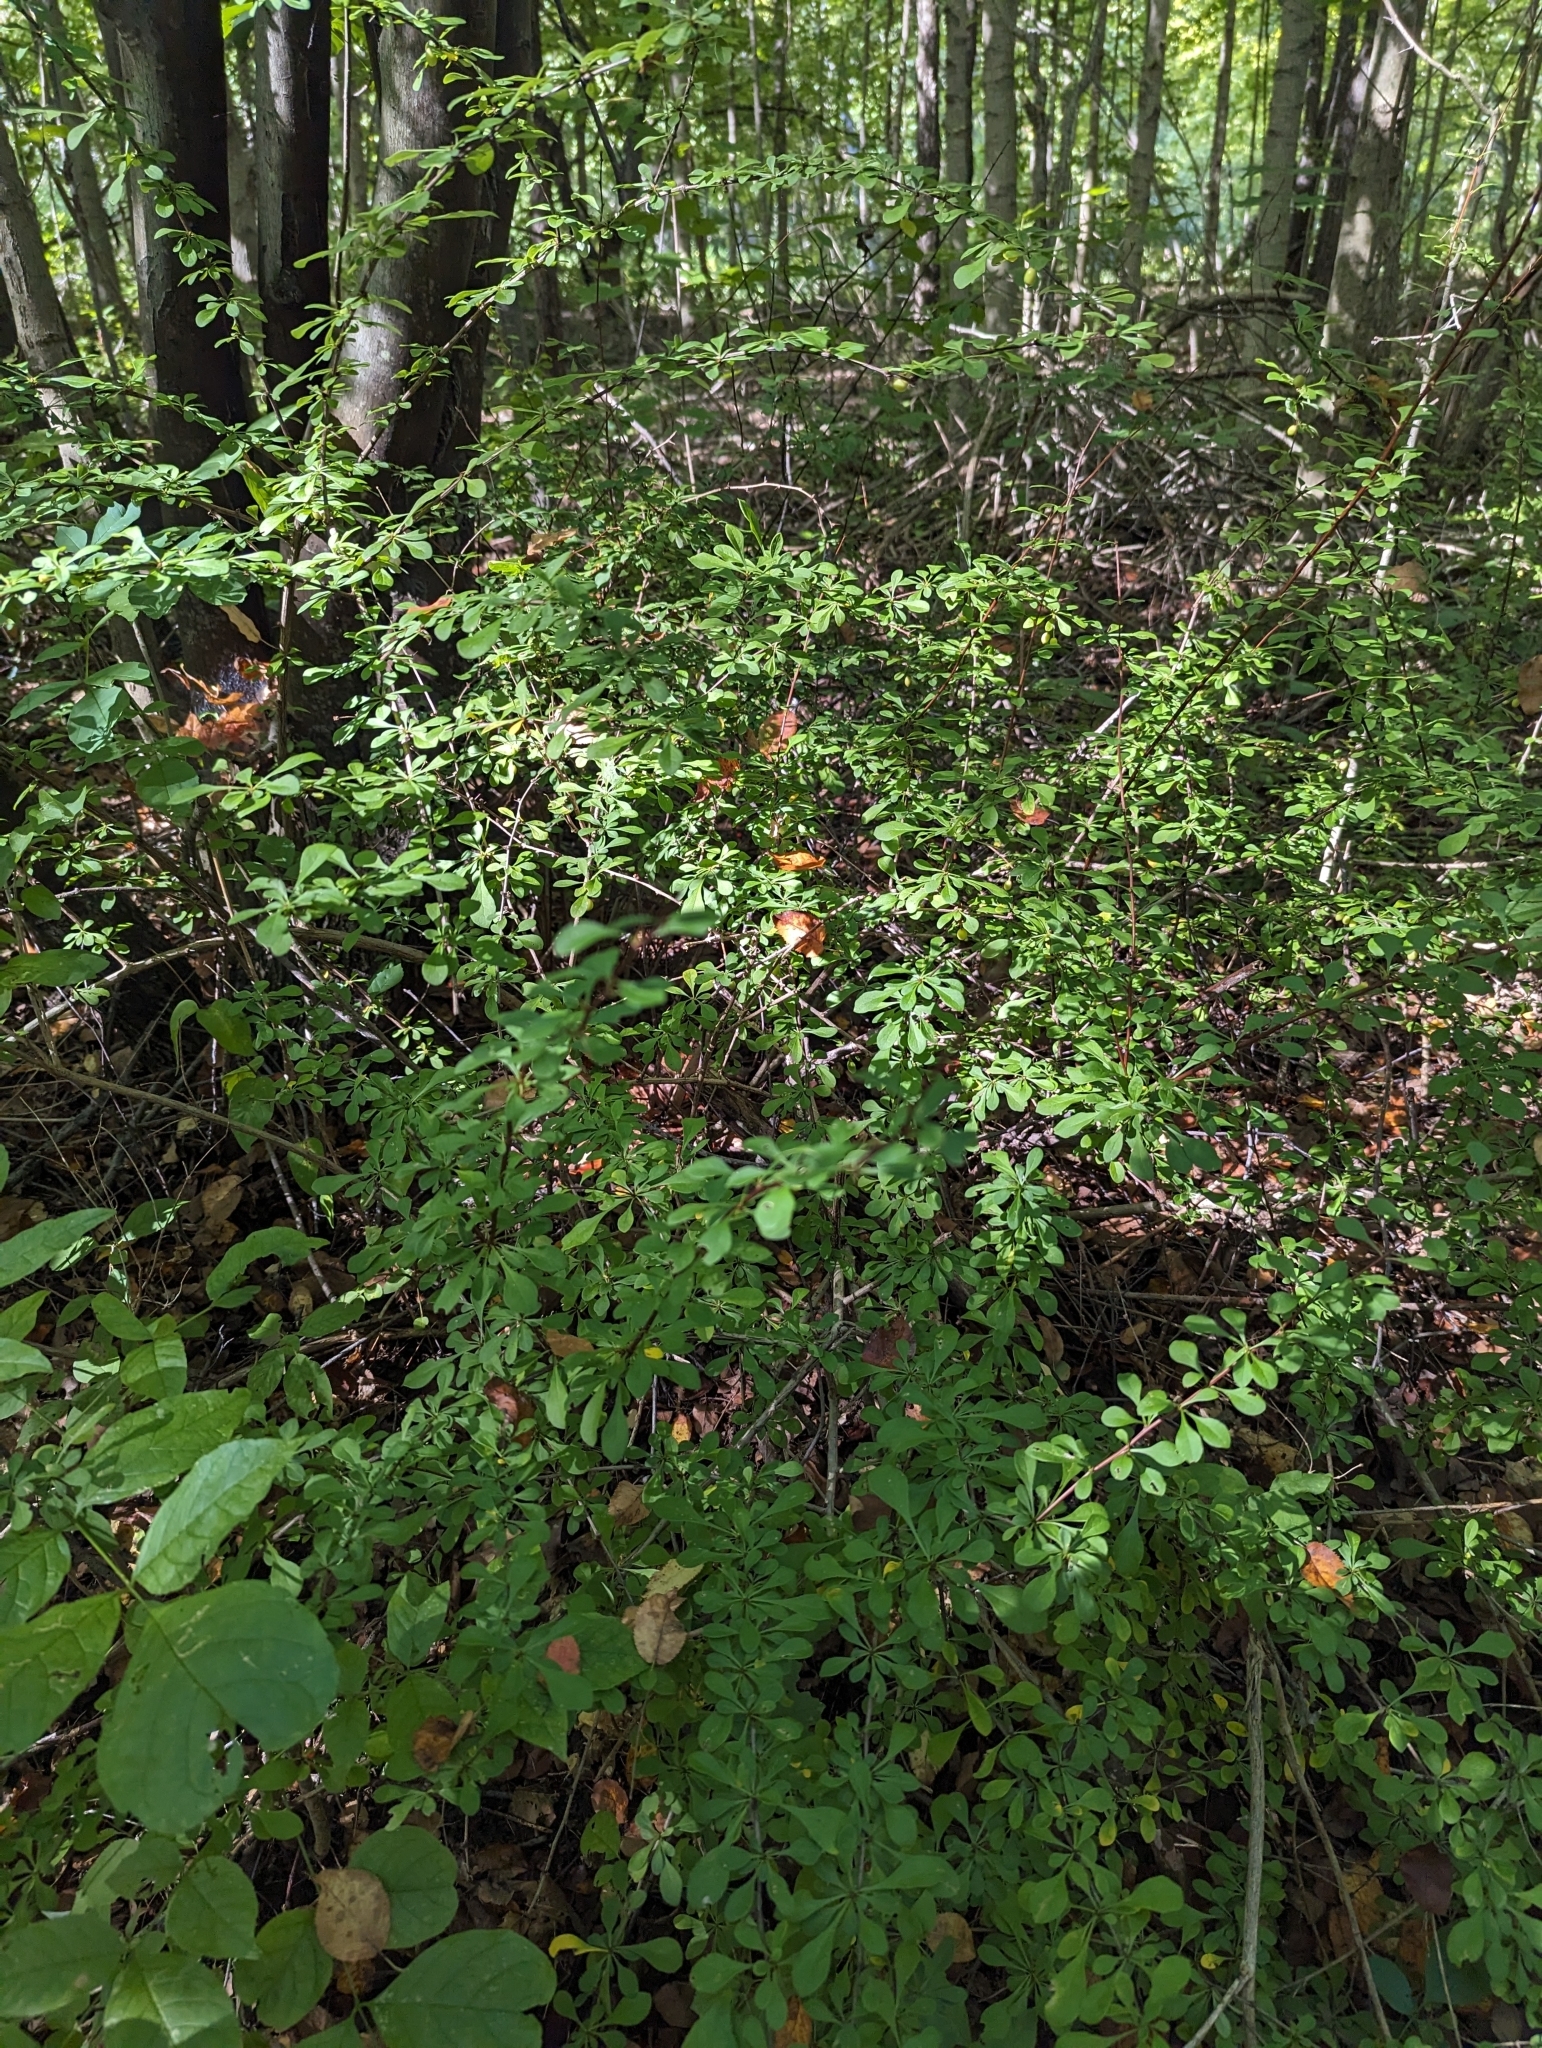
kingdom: Plantae
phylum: Tracheophyta
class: Magnoliopsida
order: Ranunculales
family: Berberidaceae
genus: Berberis
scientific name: Berberis thunbergii
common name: Japanese barberry
